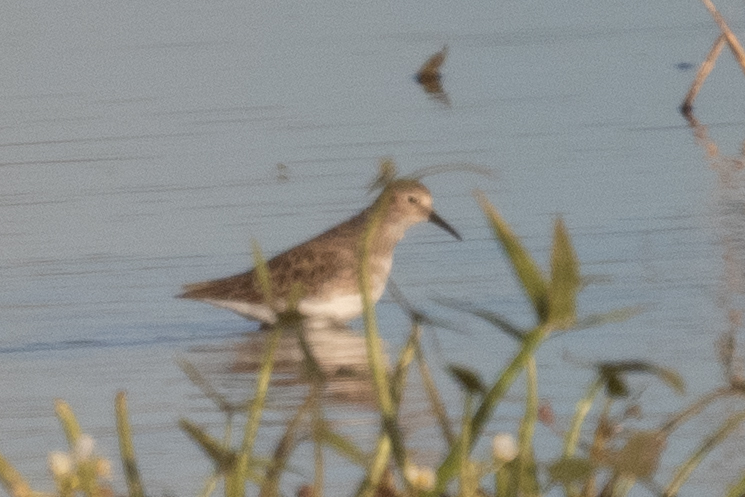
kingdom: Animalia
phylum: Chordata
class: Aves
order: Charadriiformes
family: Scolopacidae
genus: Calidris
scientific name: Calidris minutilla
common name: Least sandpiper
